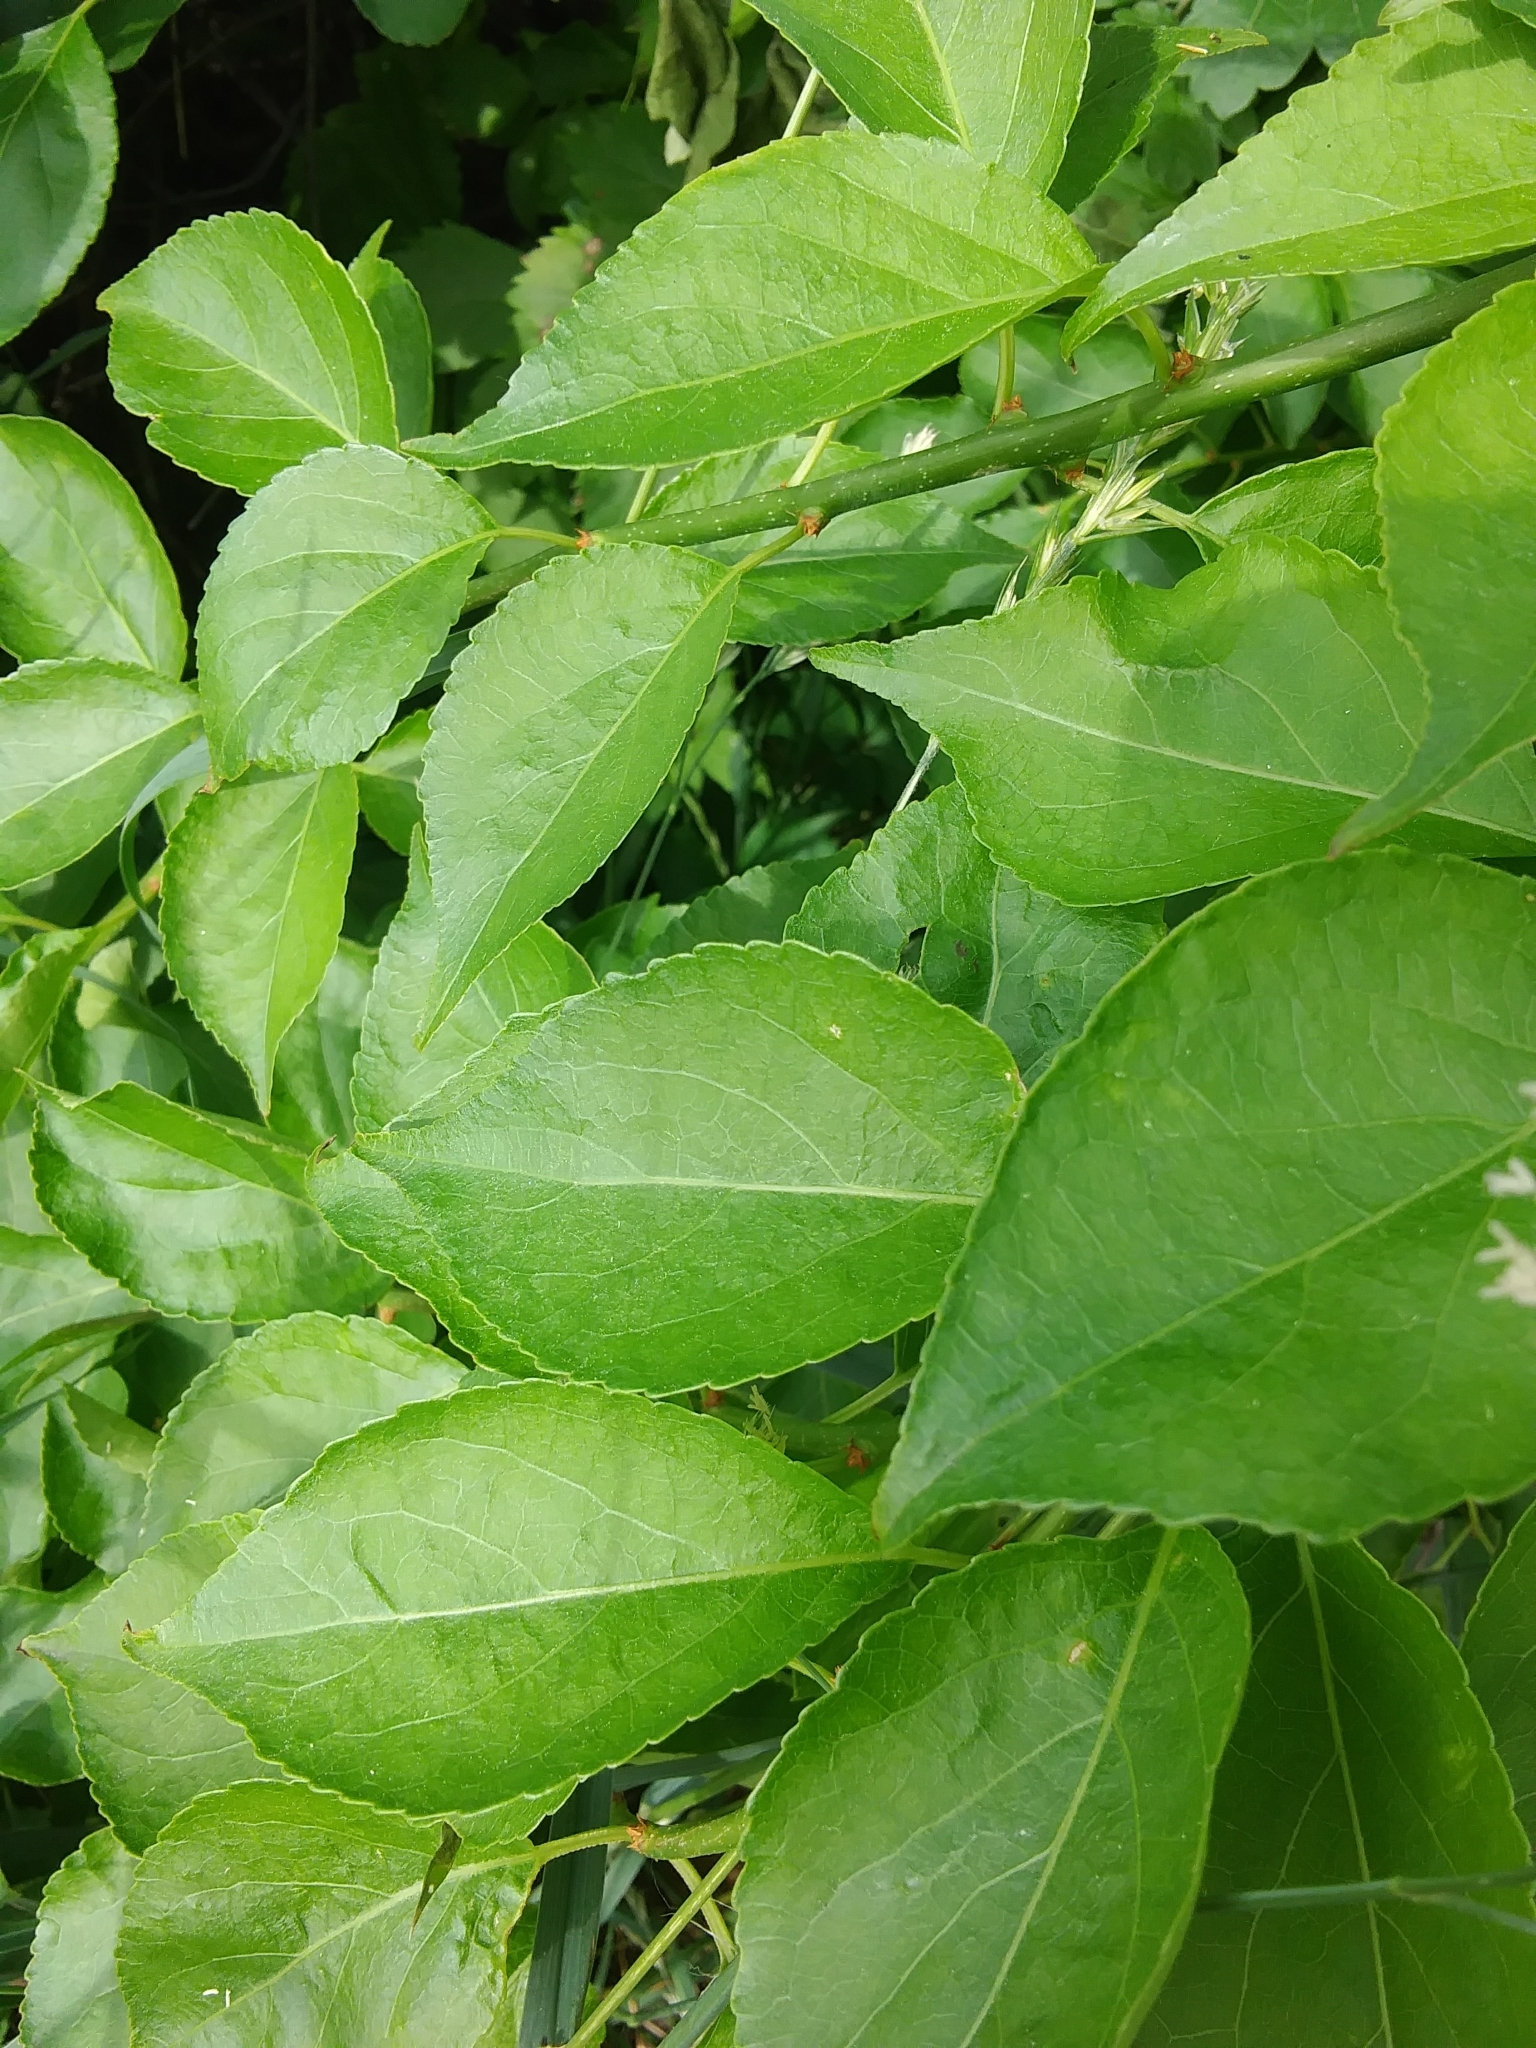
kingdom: Plantae
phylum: Tracheophyta
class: Magnoliopsida
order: Celastrales
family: Celastraceae
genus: Celastrus
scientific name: Celastrus orbiculatus
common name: Oriental bittersweet
